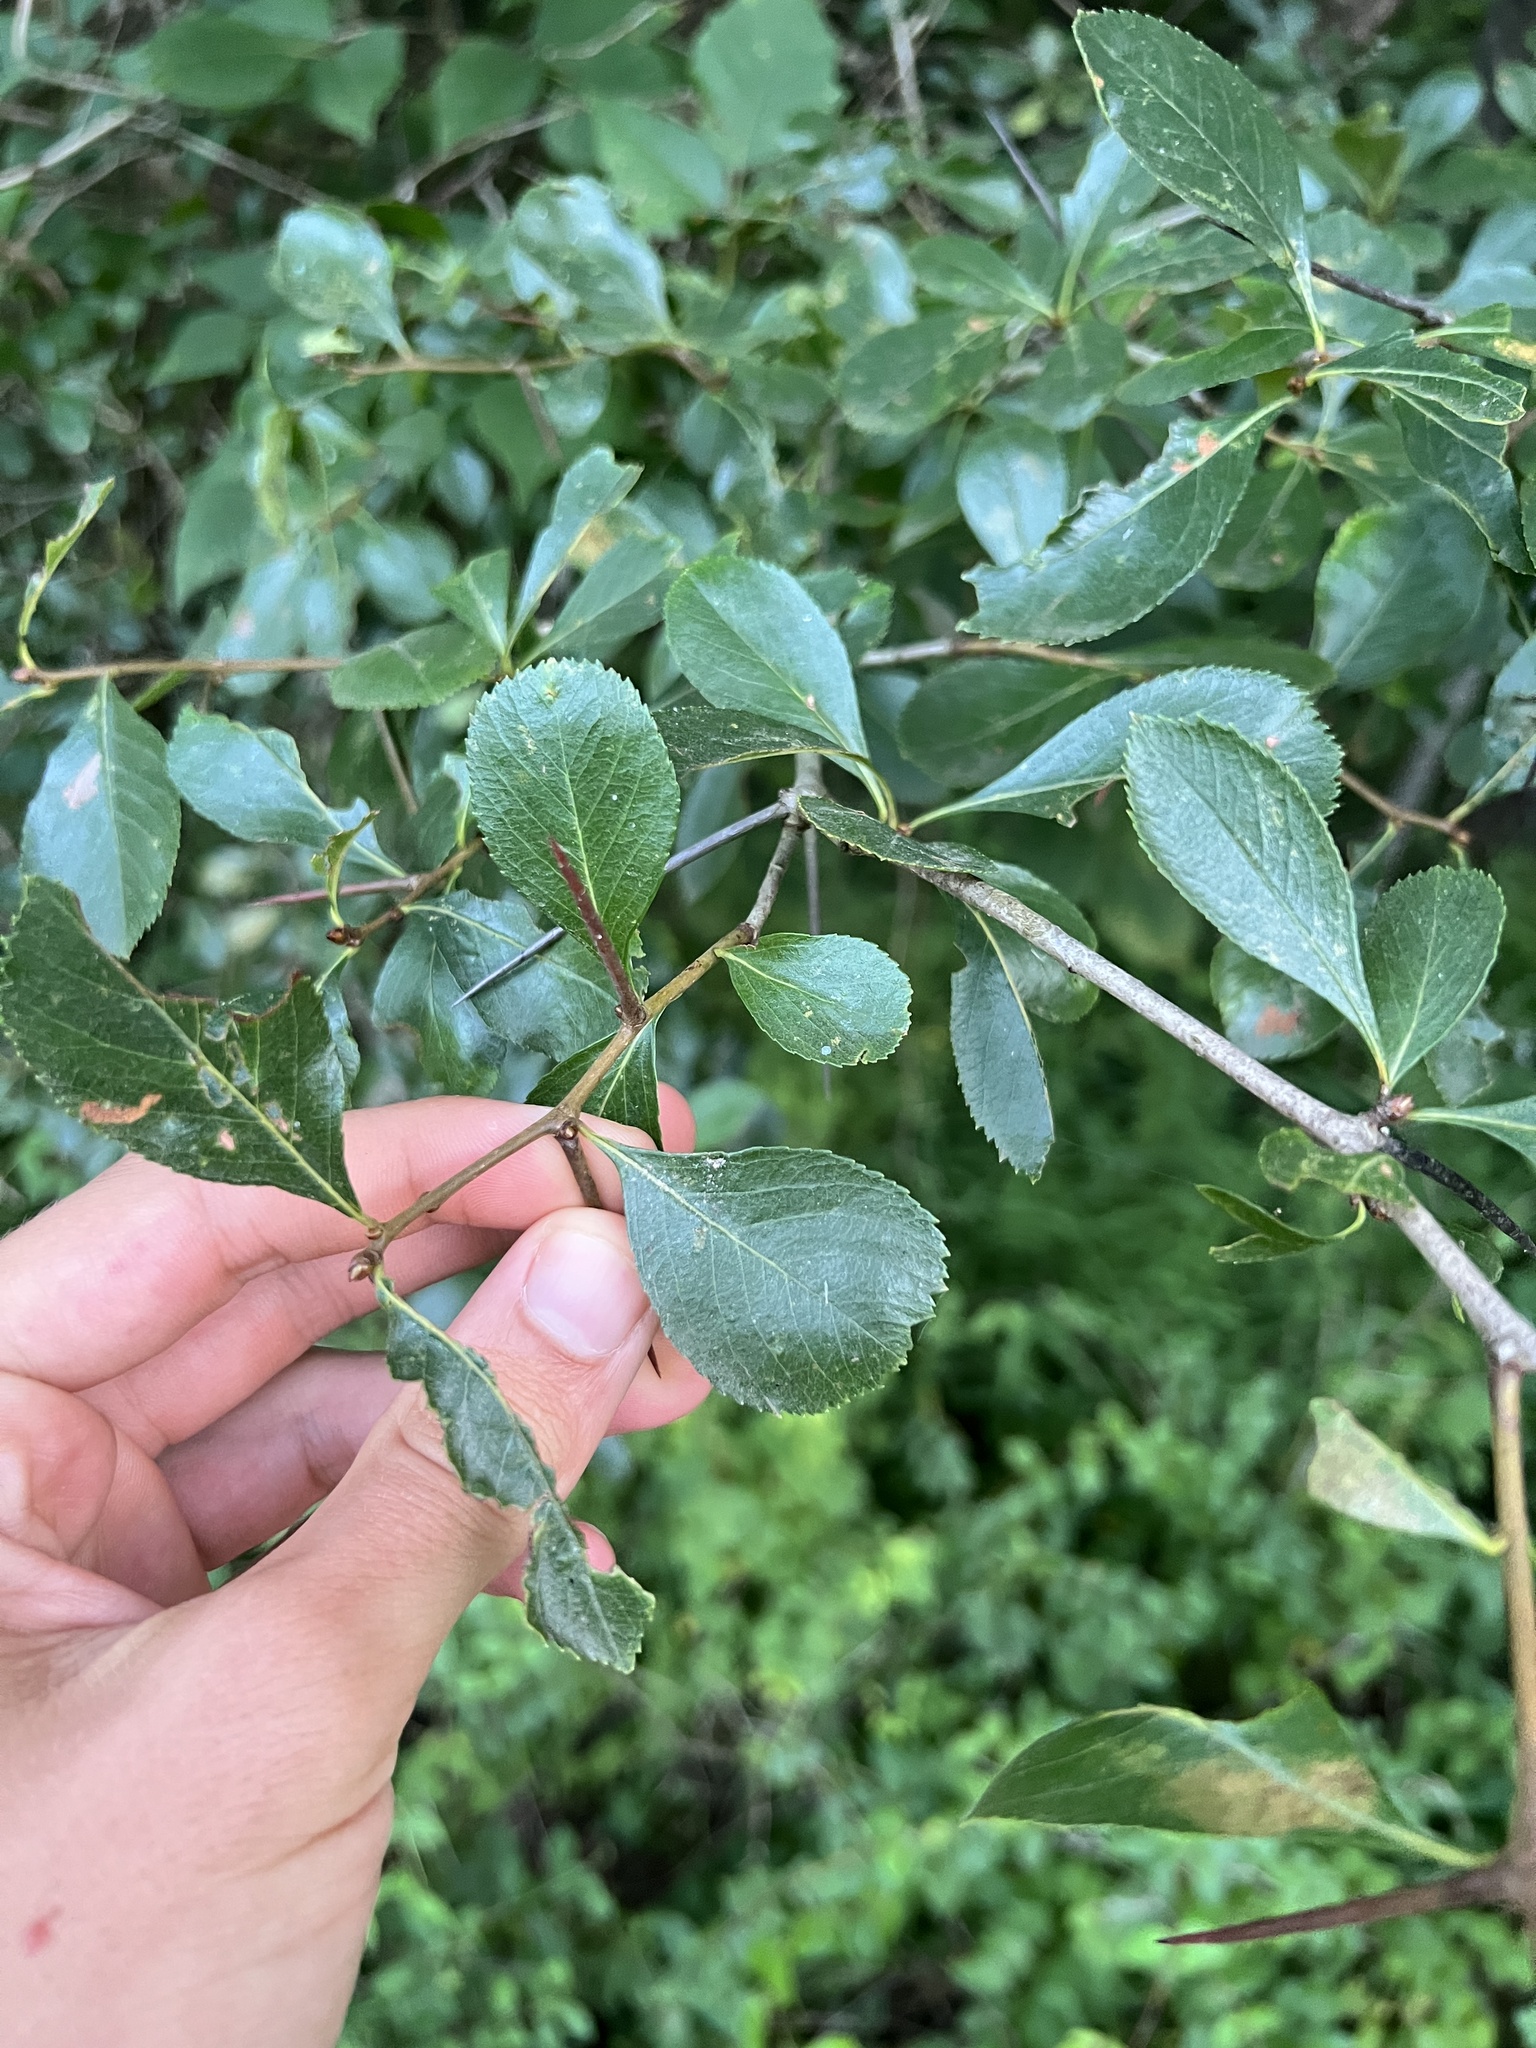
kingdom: Plantae
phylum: Tracheophyta
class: Magnoliopsida
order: Rosales
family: Rosaceae
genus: Crataegus
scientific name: Crataegus crus-galli
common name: Cockspurthorn
